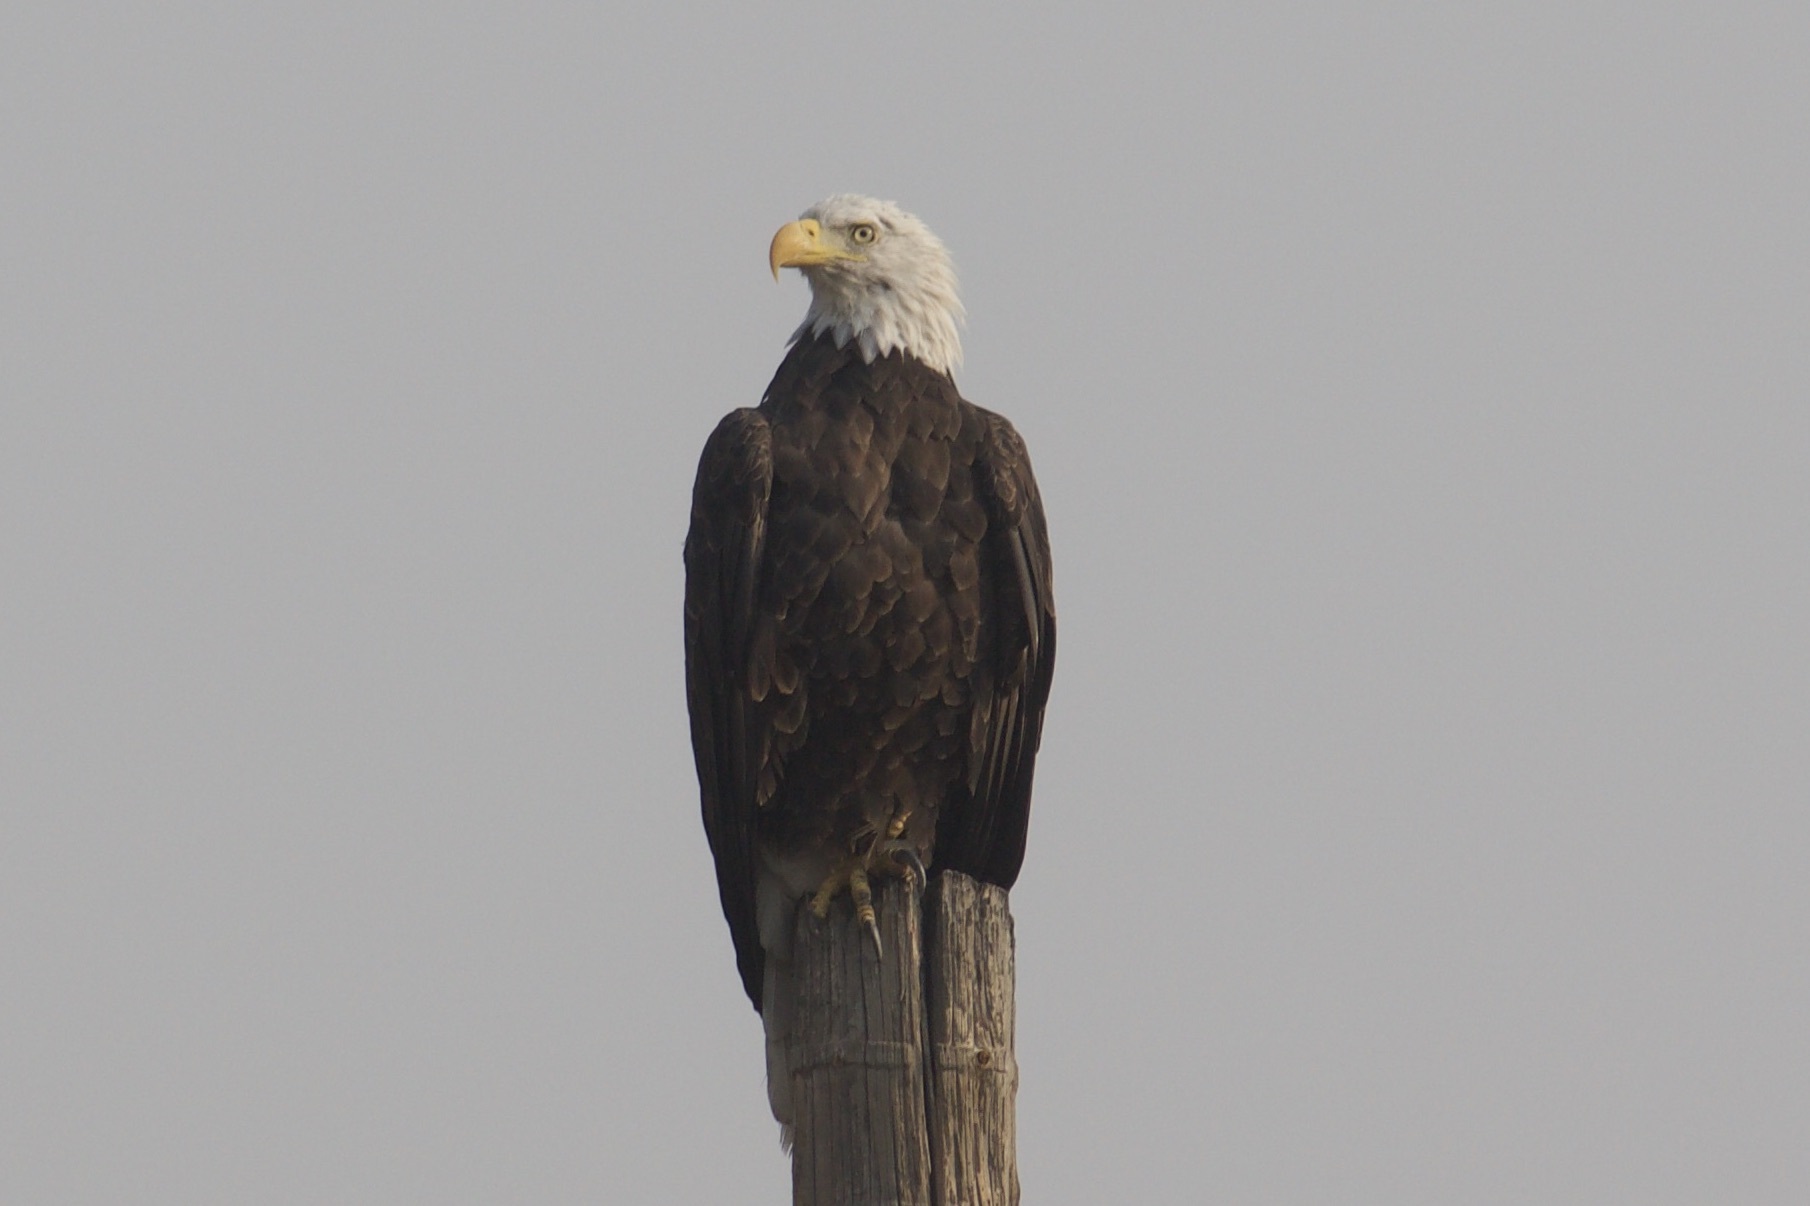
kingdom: Animalia
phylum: Chordata
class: Aves
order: Accipitriformes
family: Accipitridae
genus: Haliaeetus
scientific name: Haliaeetus leucocephalus
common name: Bald eagle
